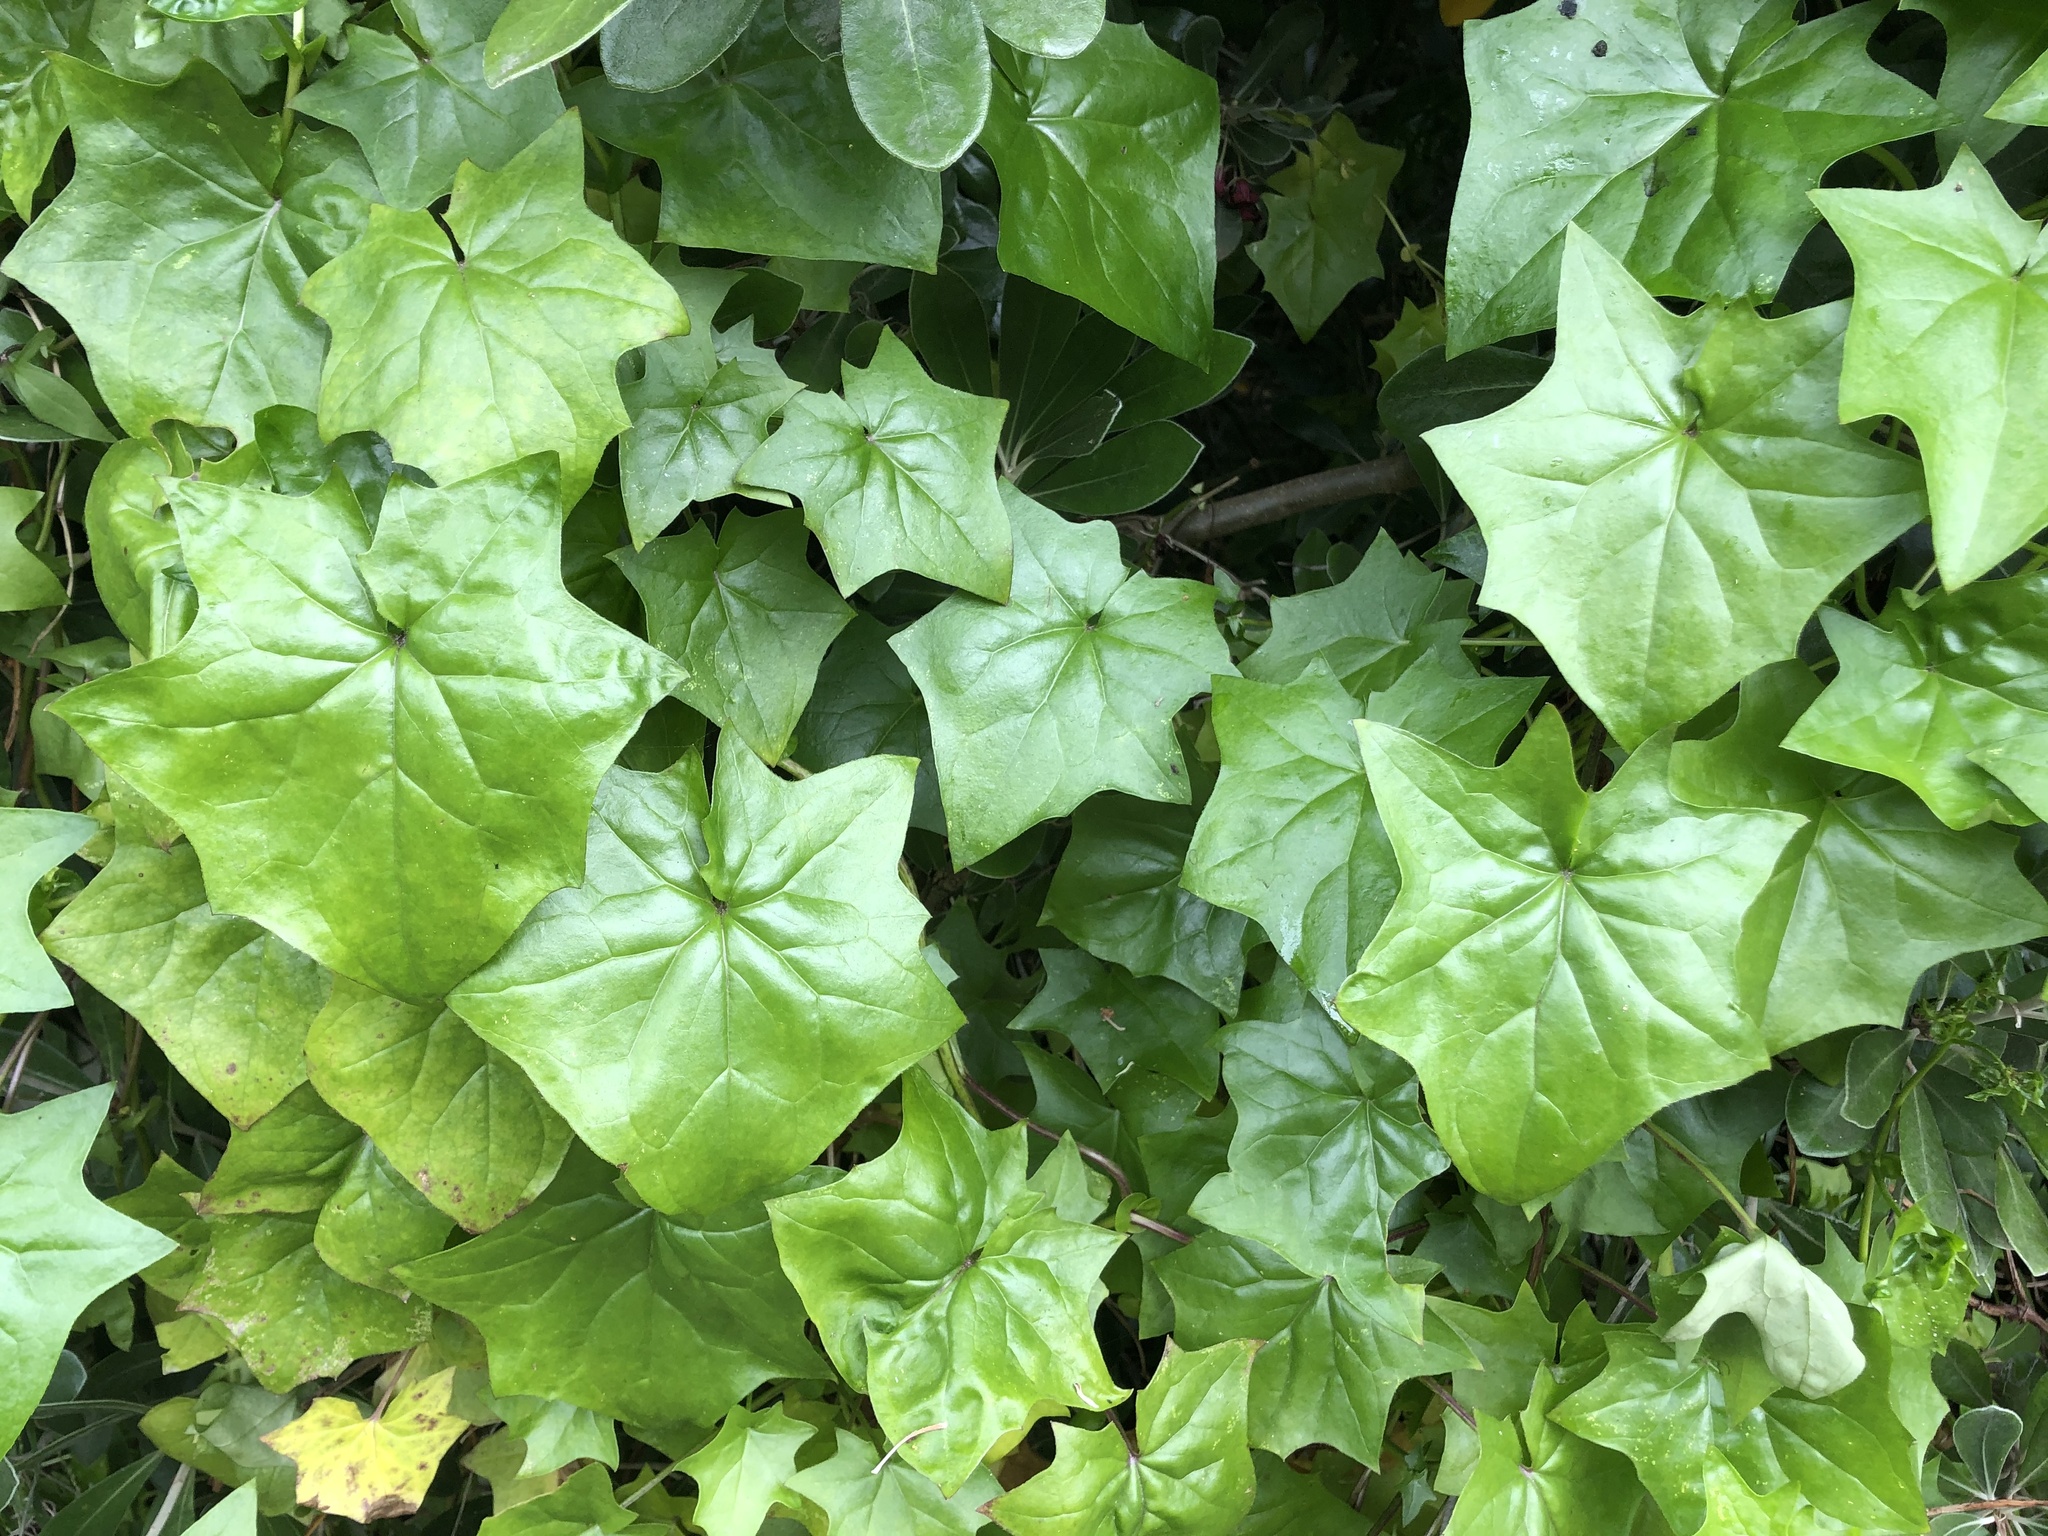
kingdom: Plantae
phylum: Tracheophyta
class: Magnoliopsida
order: Asterales
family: Asteraceae
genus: Delairea
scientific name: Delairea odorata
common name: Cape-ivy
